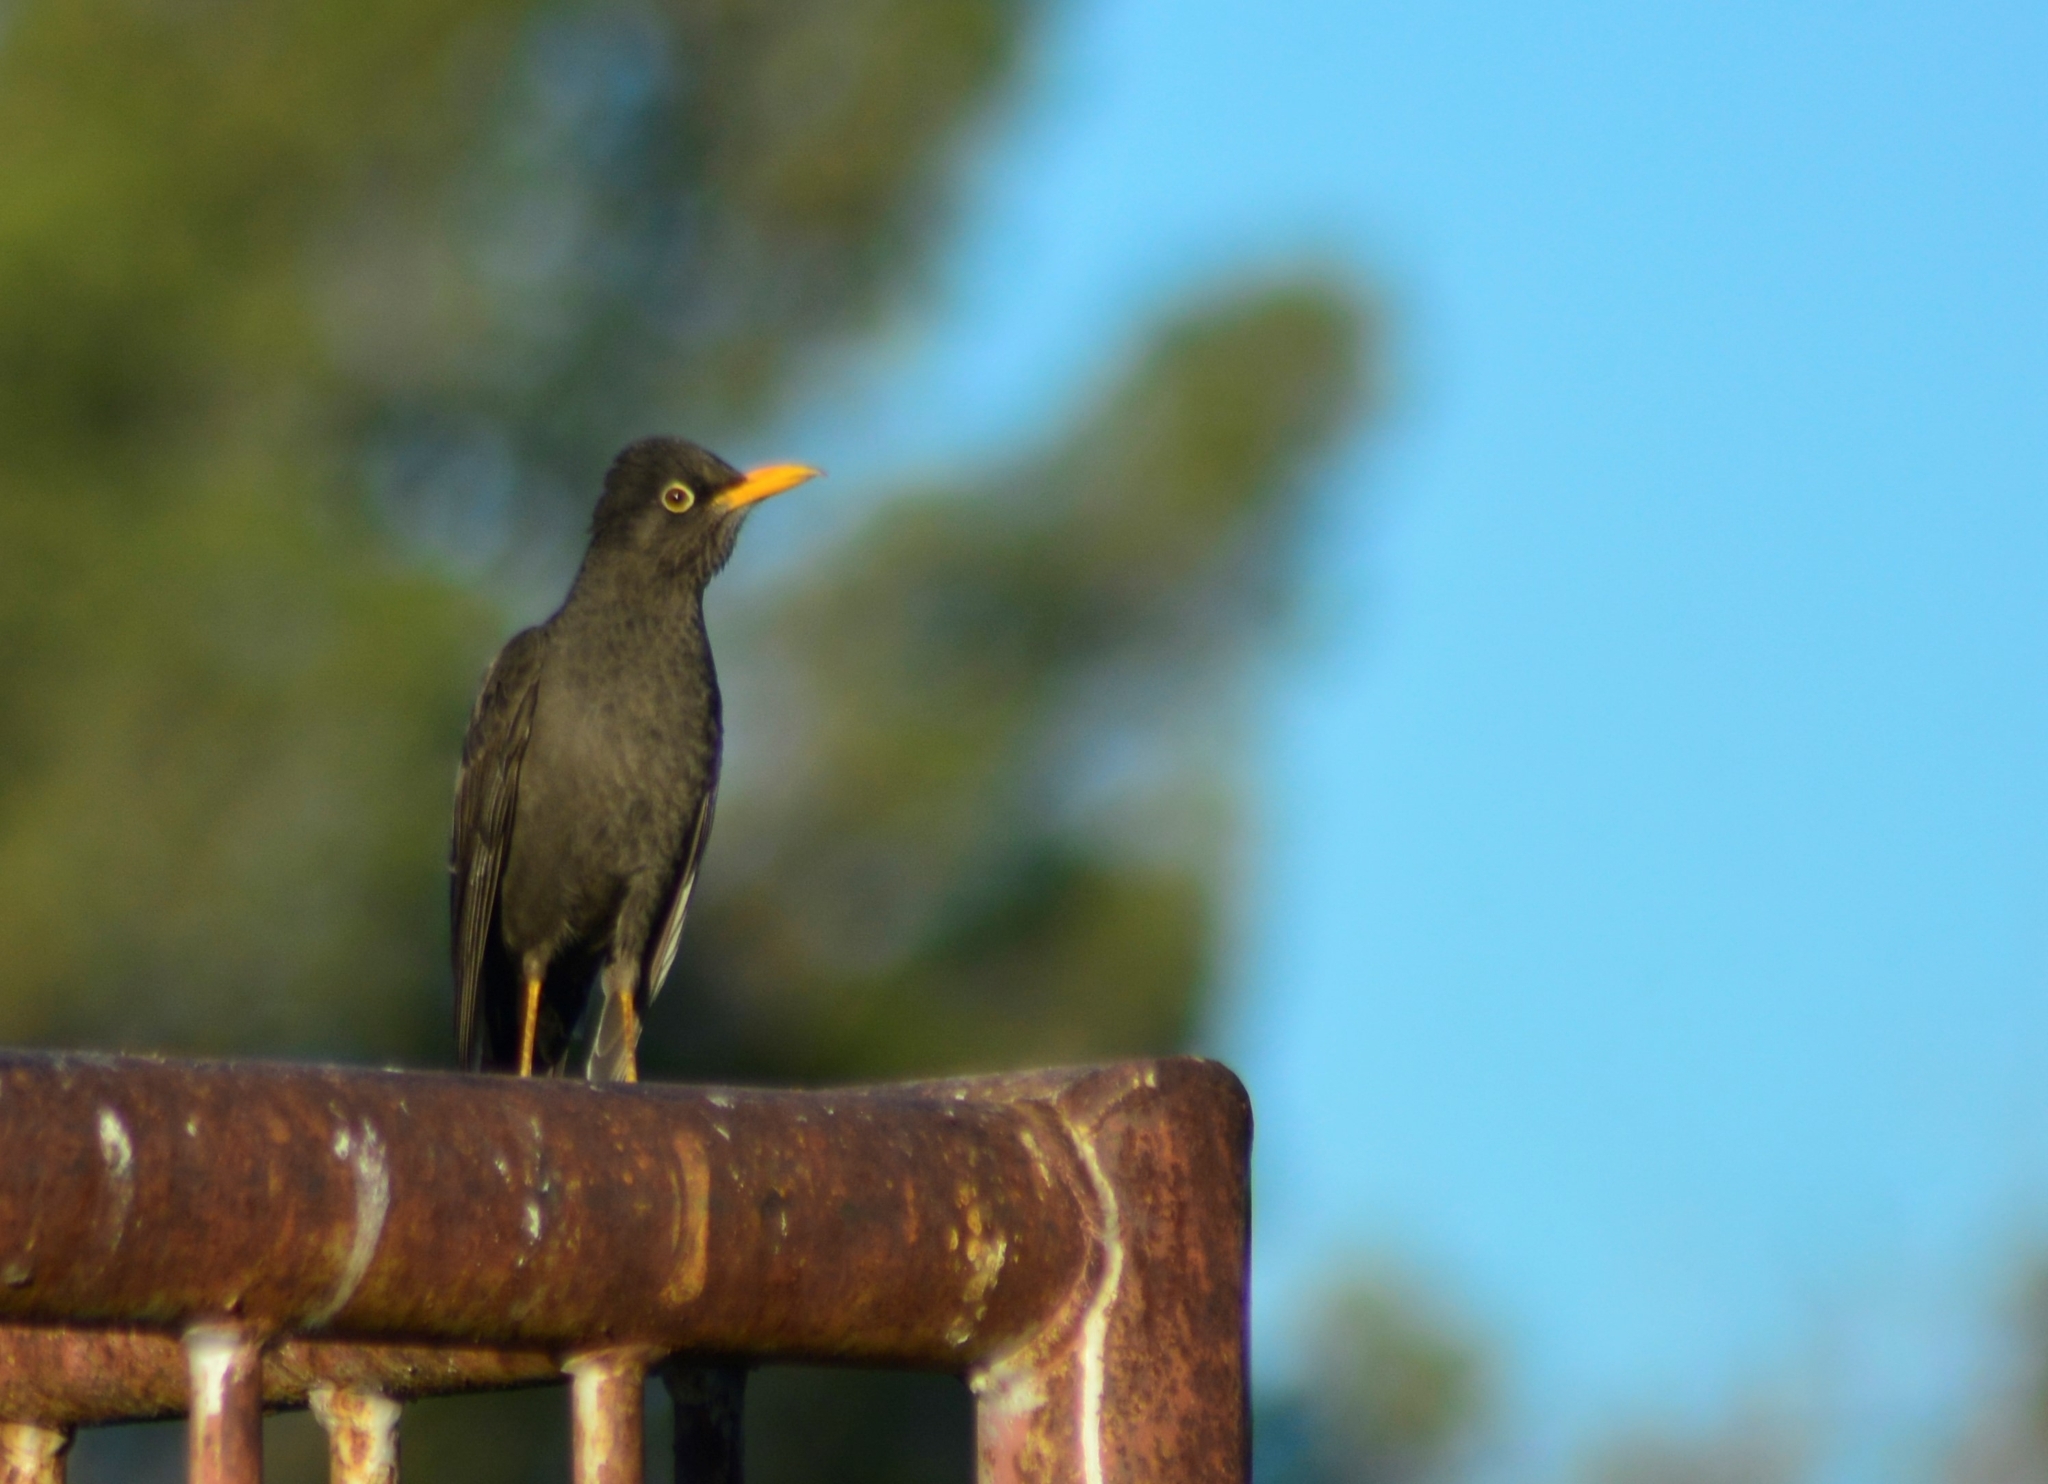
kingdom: Animalia
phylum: Chordata
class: Aves
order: Passeriformes
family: Turdidae
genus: Turdus
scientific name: Turdus chiguanco
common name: Chiguanco thrush
